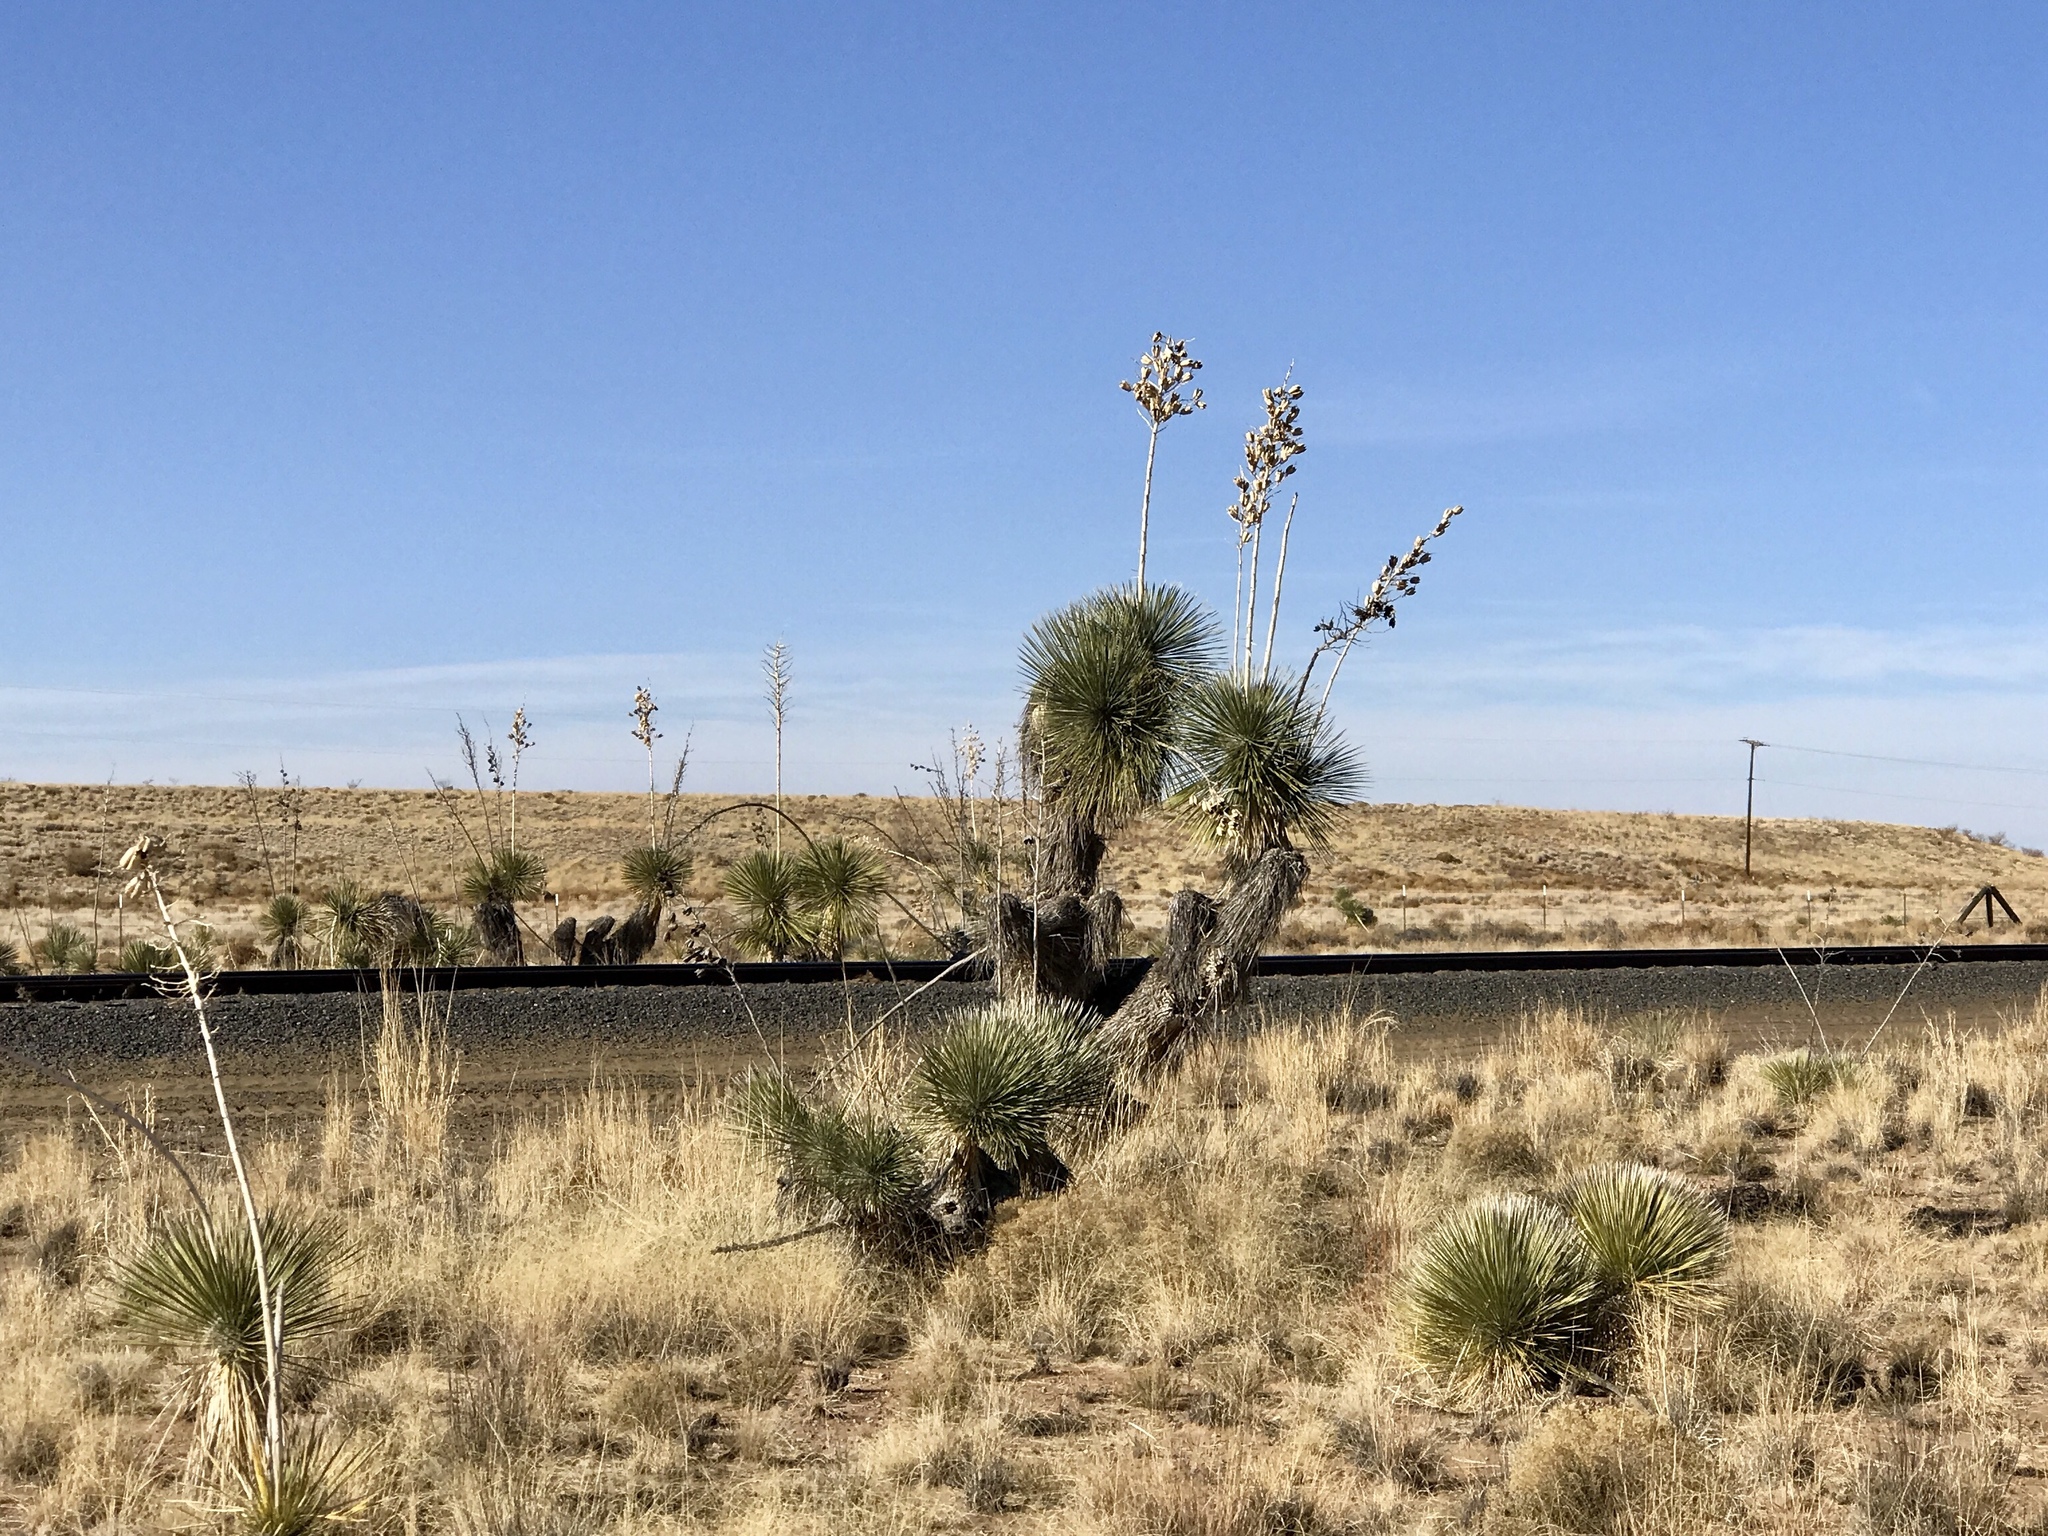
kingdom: Plantae
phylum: Tracheophyta
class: Liliopsida
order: Asparagales
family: Asparagaceae
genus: Yucca
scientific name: Yucca elata
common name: Palmella
